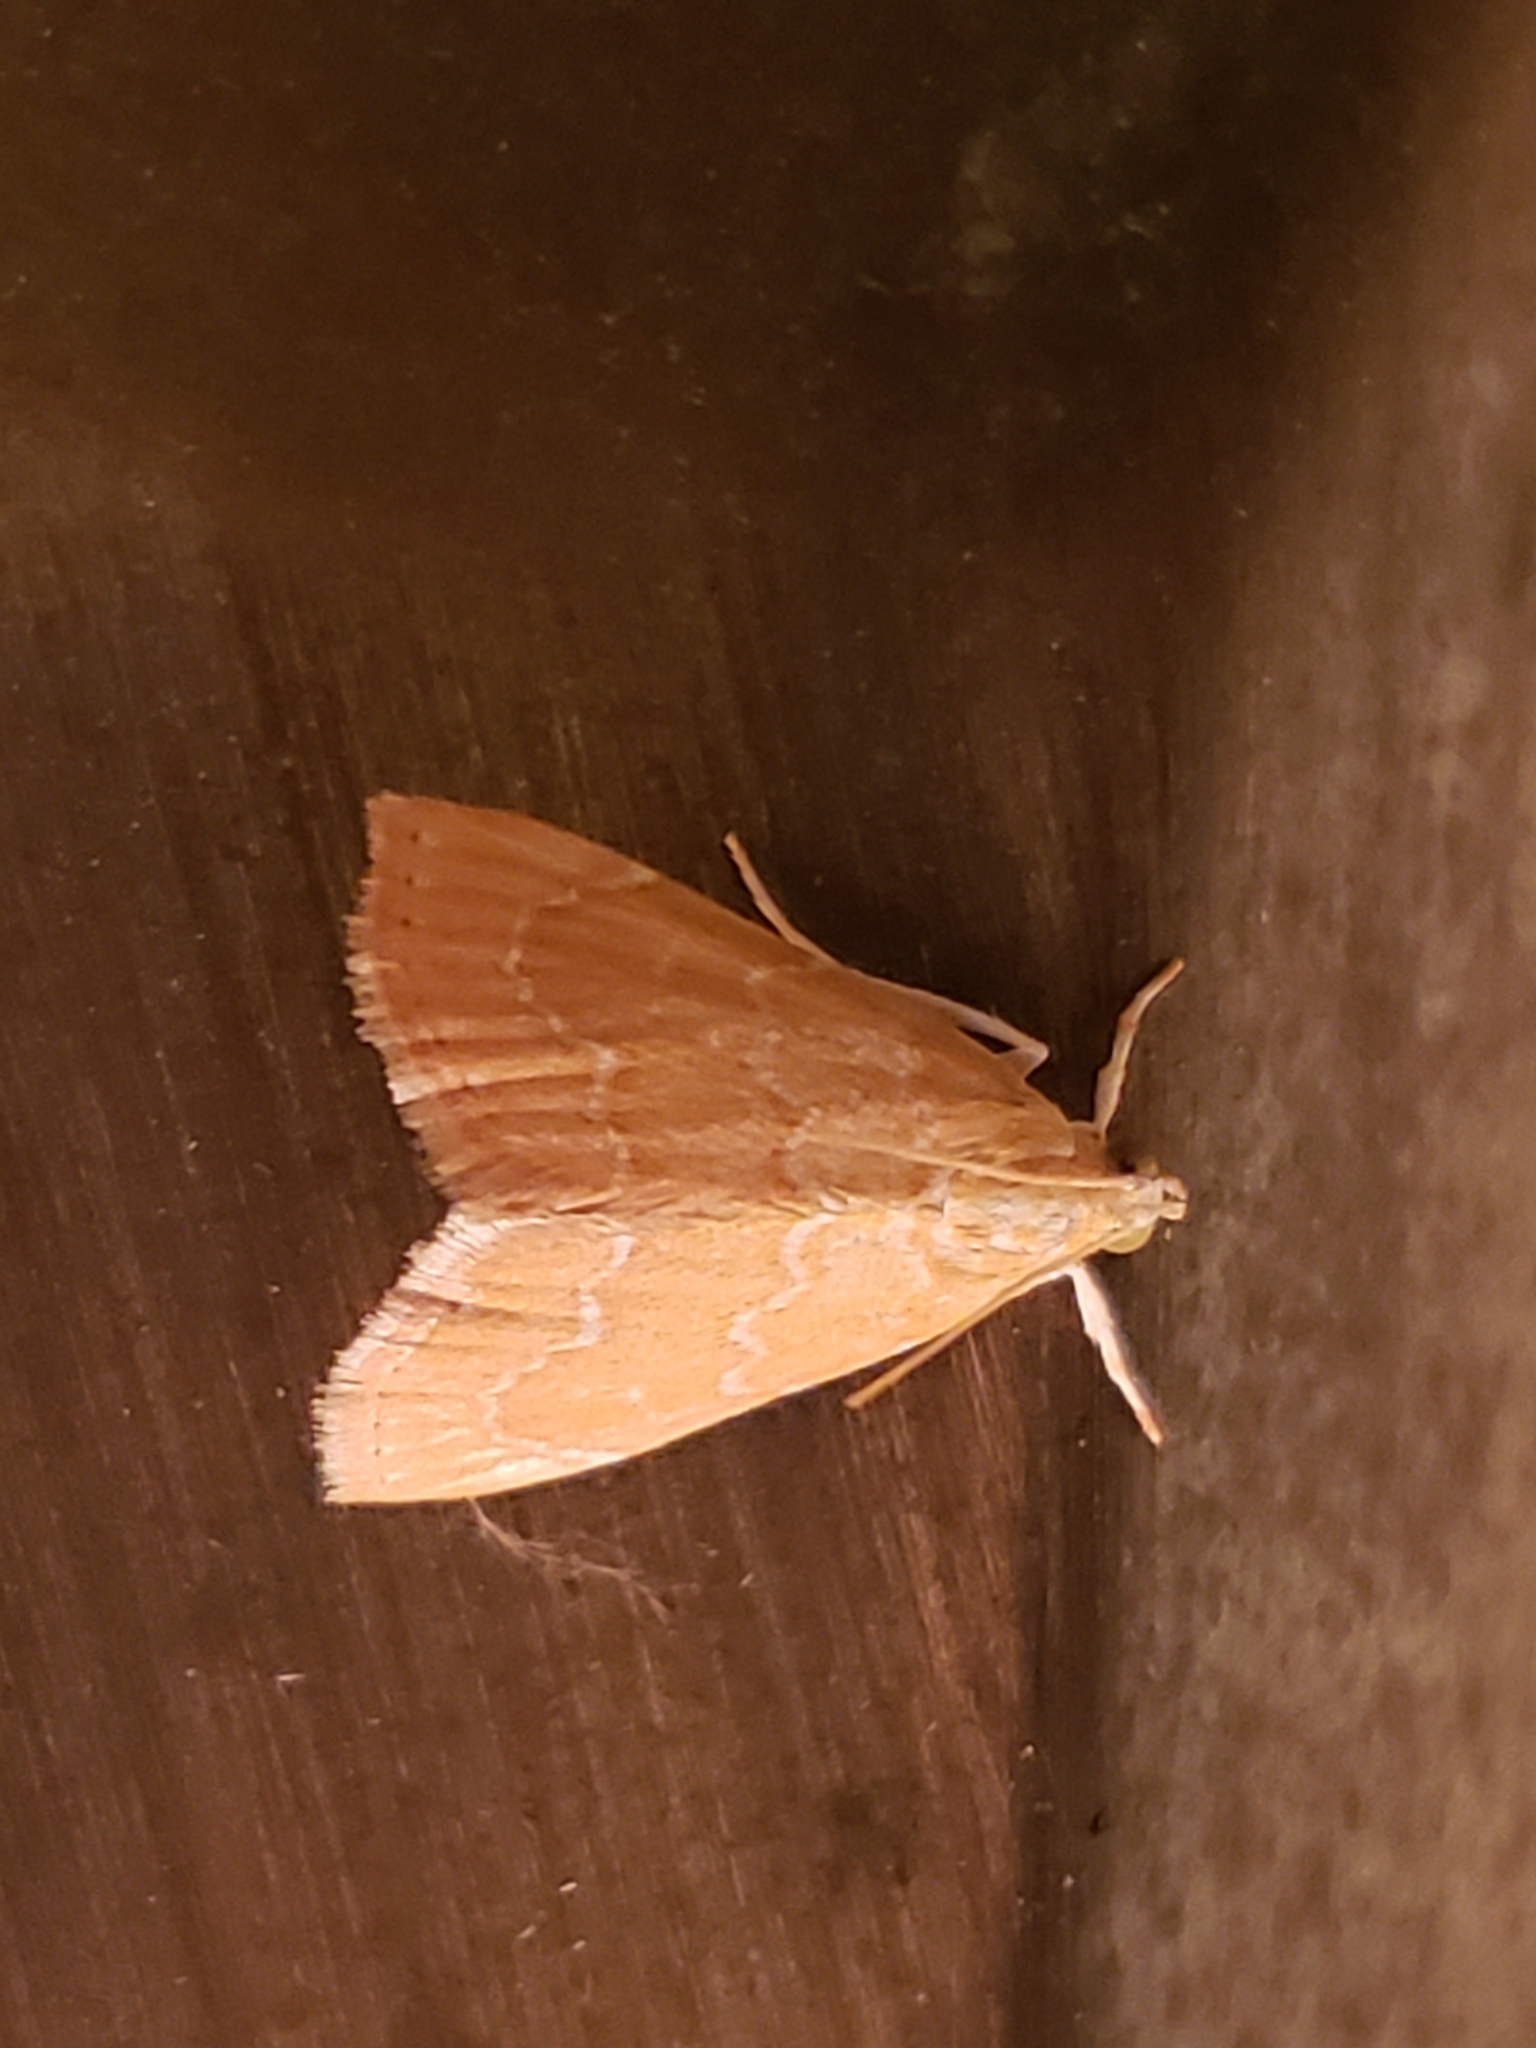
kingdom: Animalia
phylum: Arthropoda
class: Insecta
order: Lepidoptera
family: Crambidae
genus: Glaphyria
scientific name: Glaphyria sesquistrialis
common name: White-roped glaphyria
